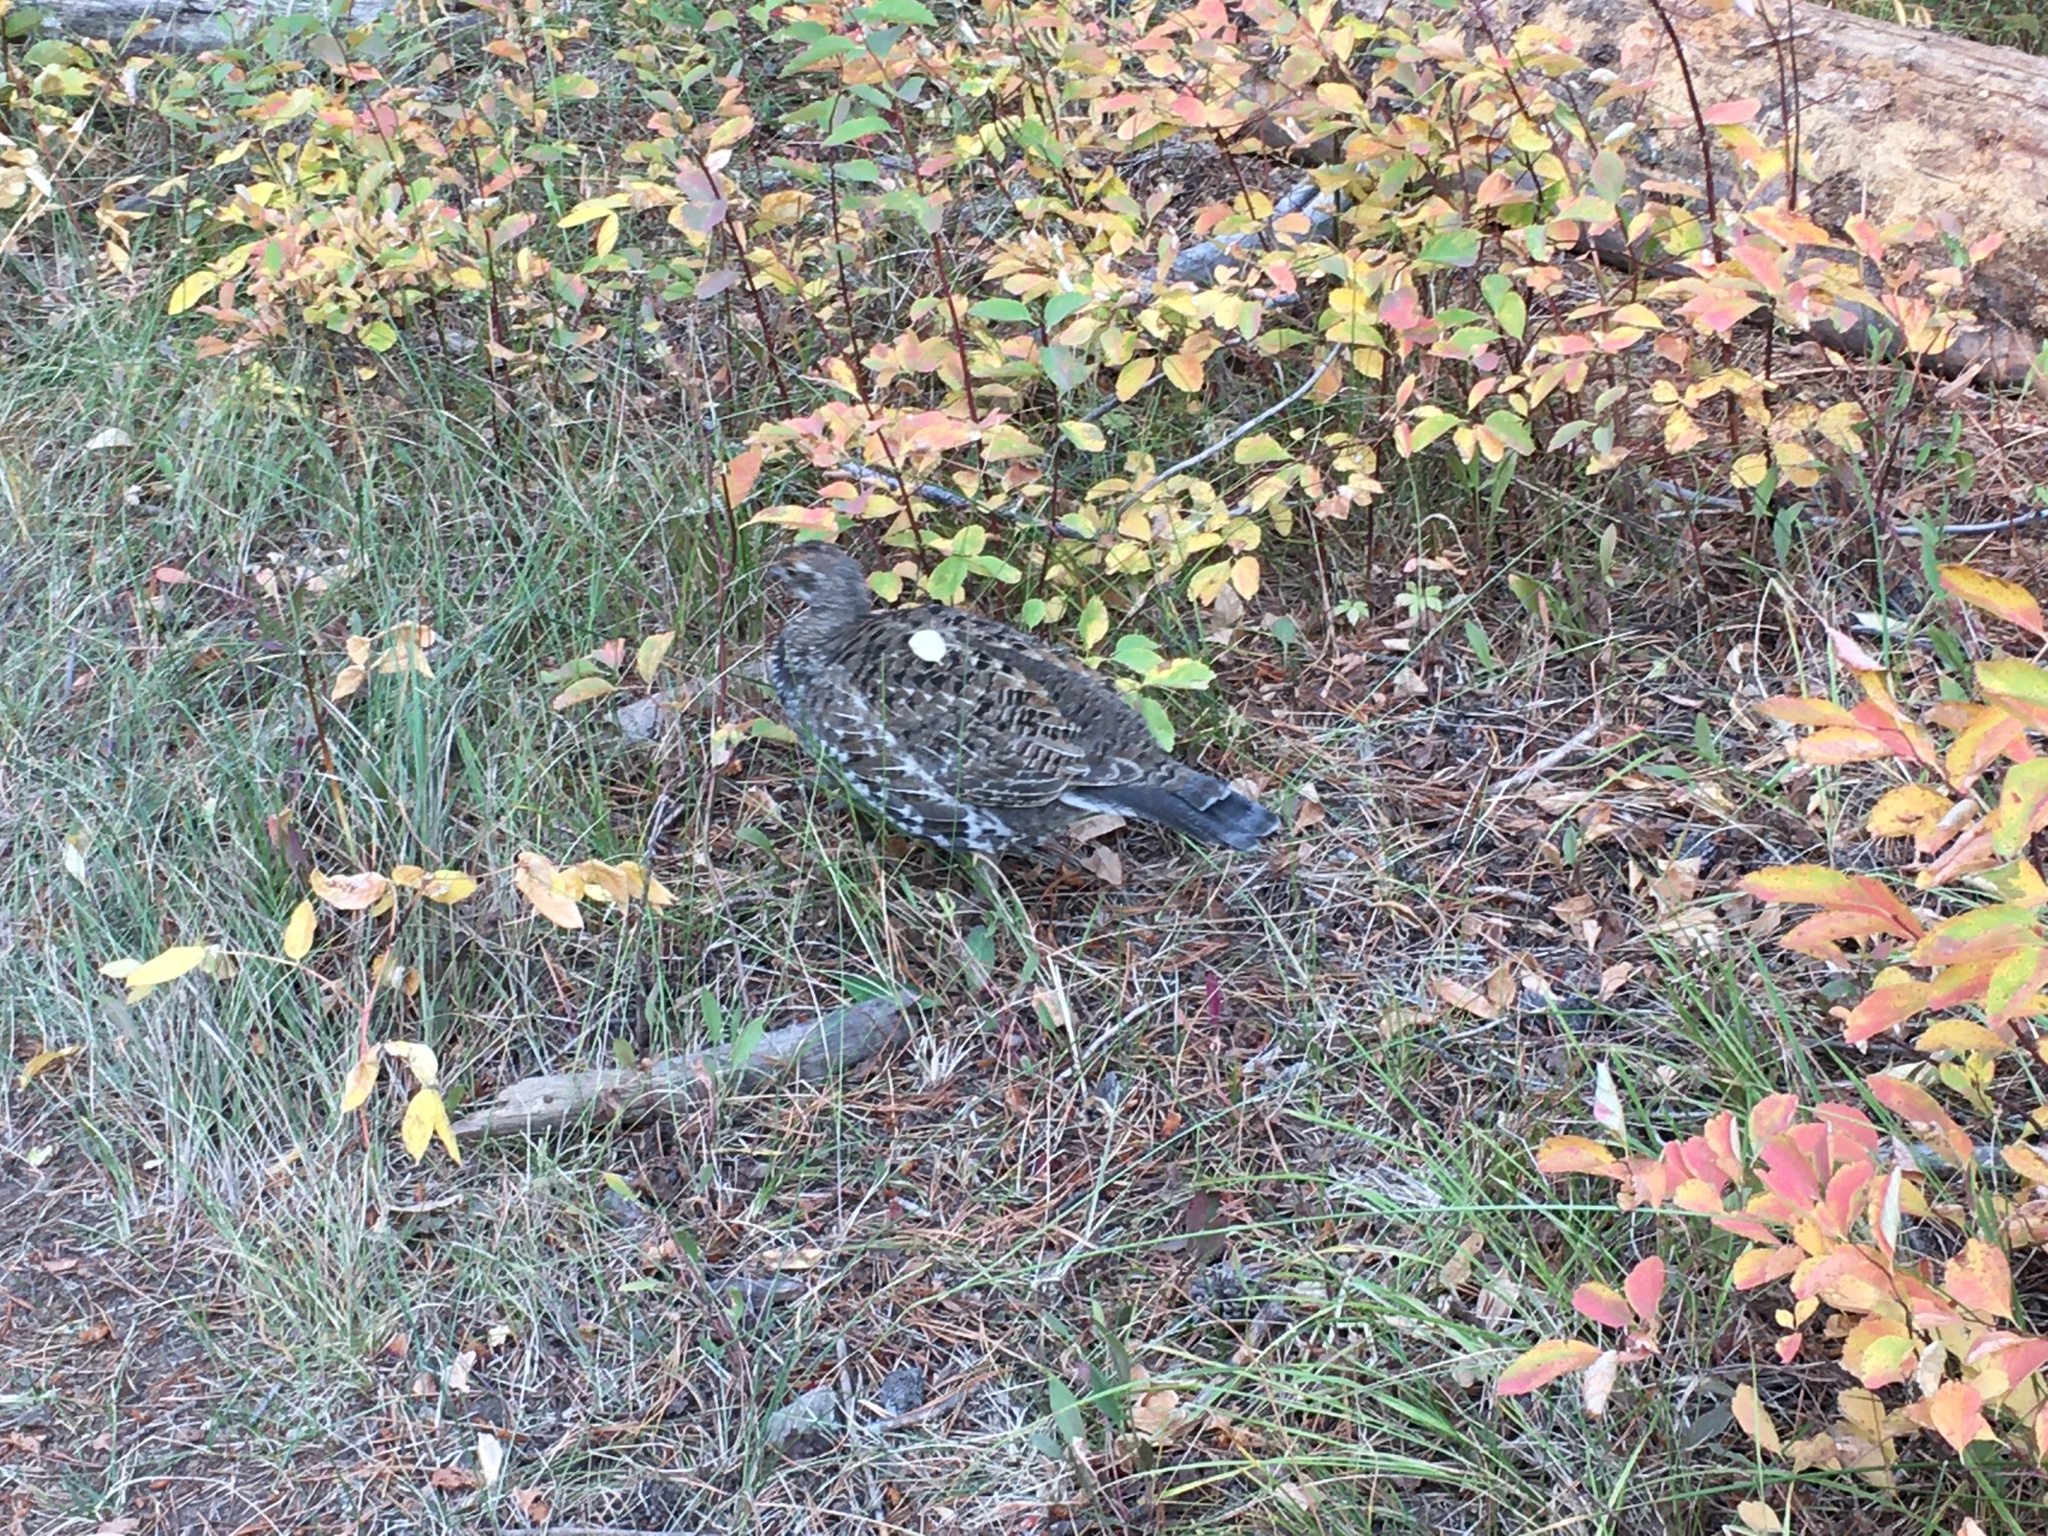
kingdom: Animalia
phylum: Chordata
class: Aves
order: Galliformes
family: Phasianidae
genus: Dendragapus
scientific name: Dendragapus obscurus
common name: Dusky grouse
